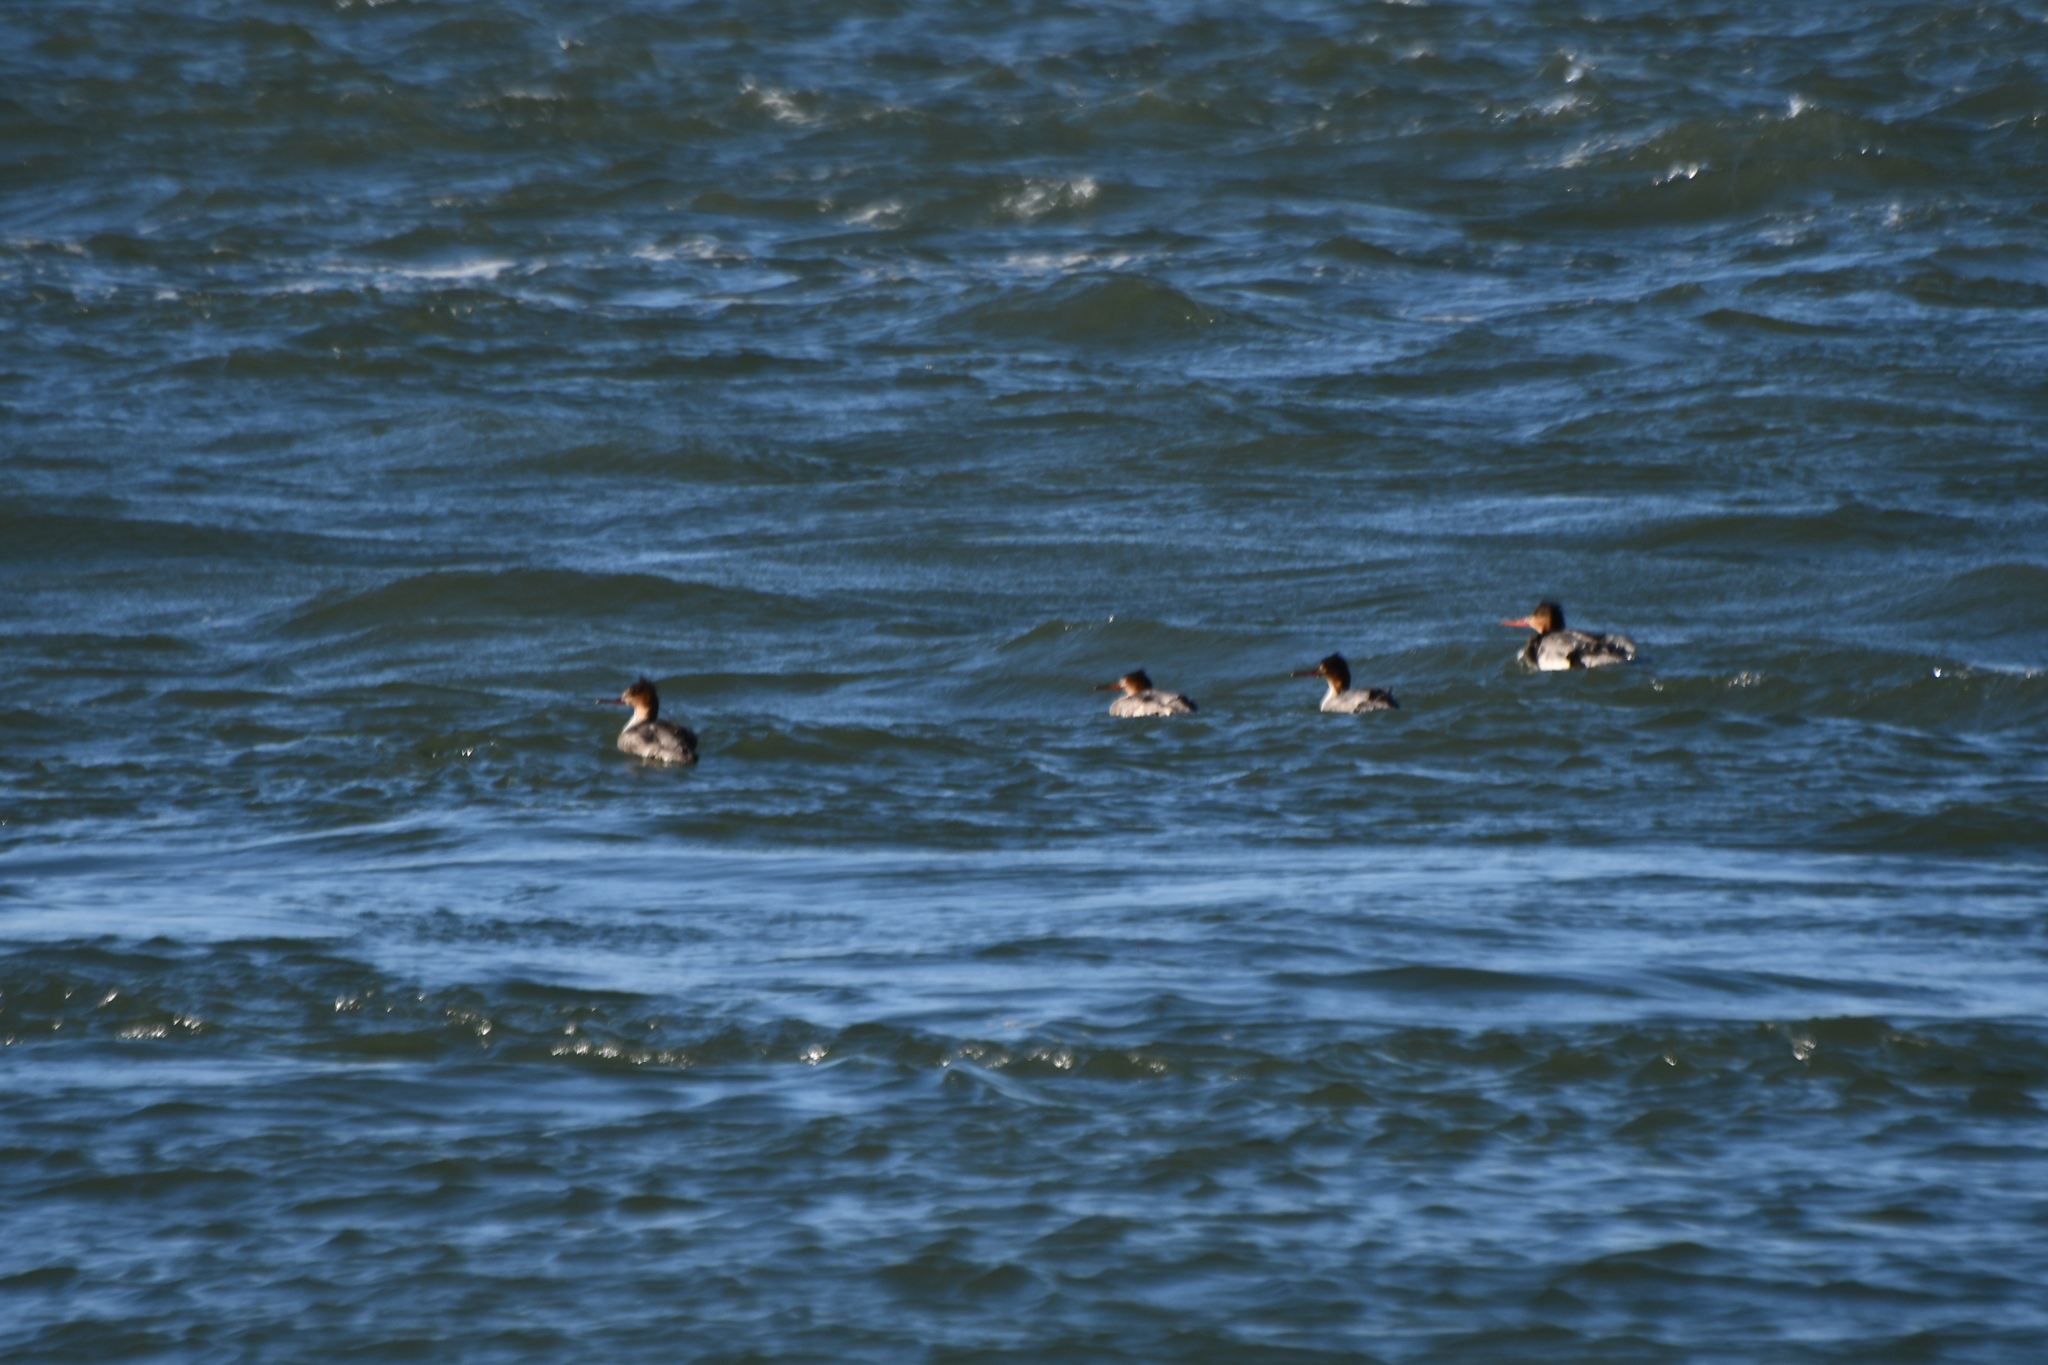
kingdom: Animalia
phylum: Chordata
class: Aves
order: Anseriformes
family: Anatidae
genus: Mergus
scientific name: Mergus serrator
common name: Red-breasted merganser
